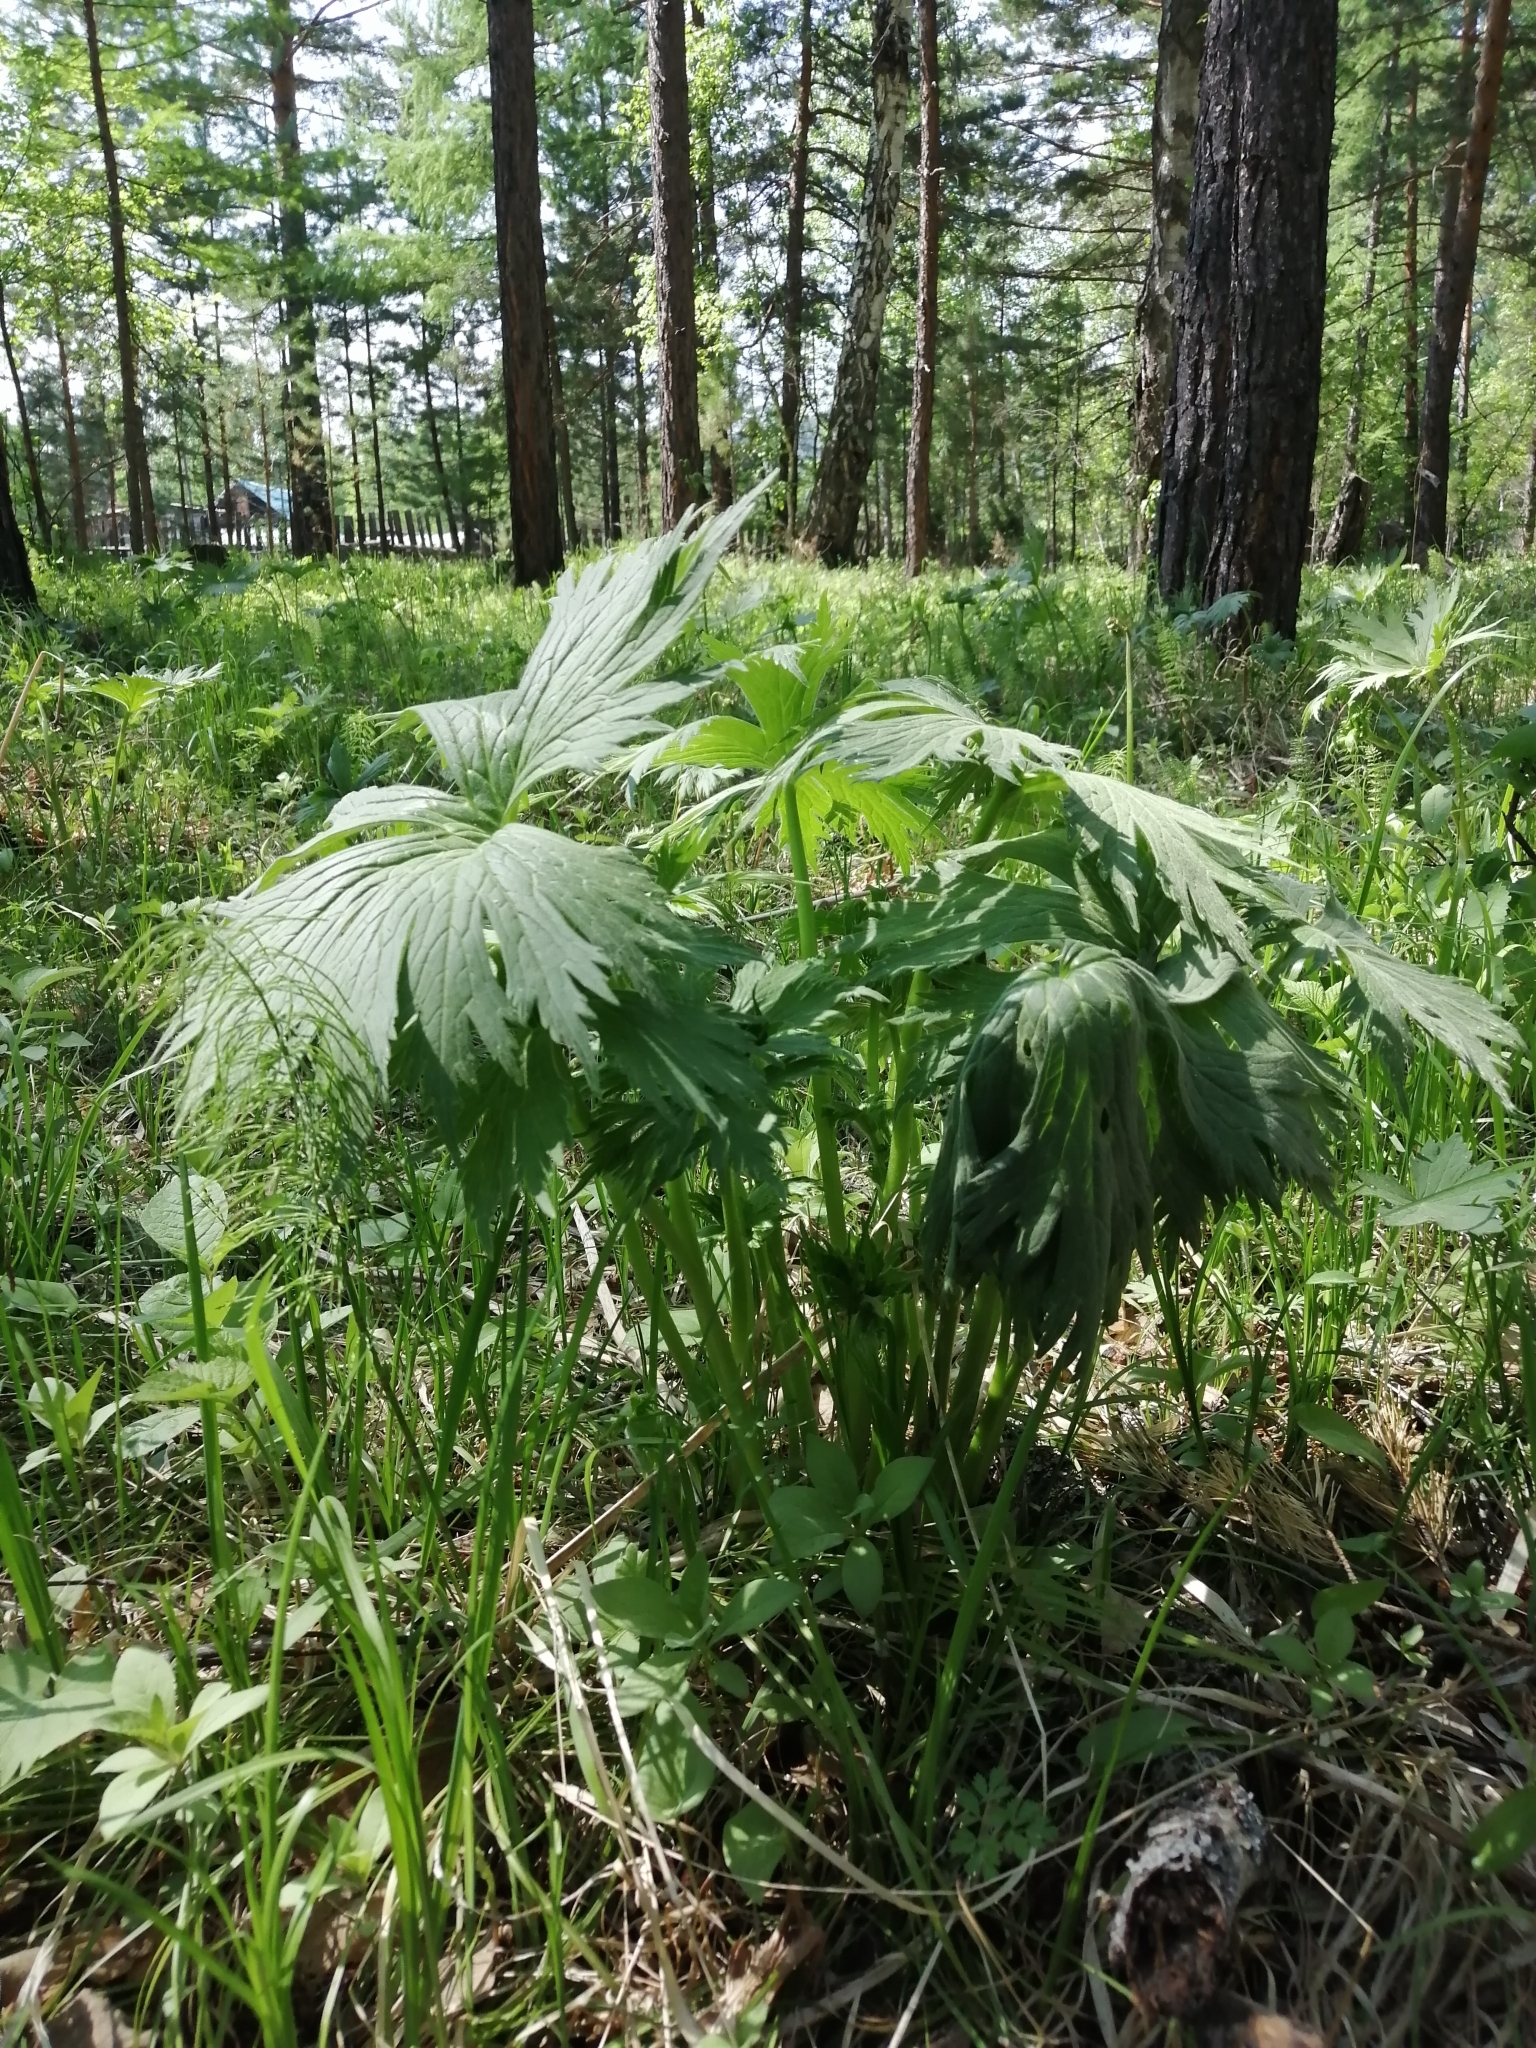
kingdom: Plantae
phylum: Tracheophyta
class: Magnoliopsida
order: Ranunculales
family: Ranunculaceae
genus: Aconitum
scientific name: Aconitum septentrionale
